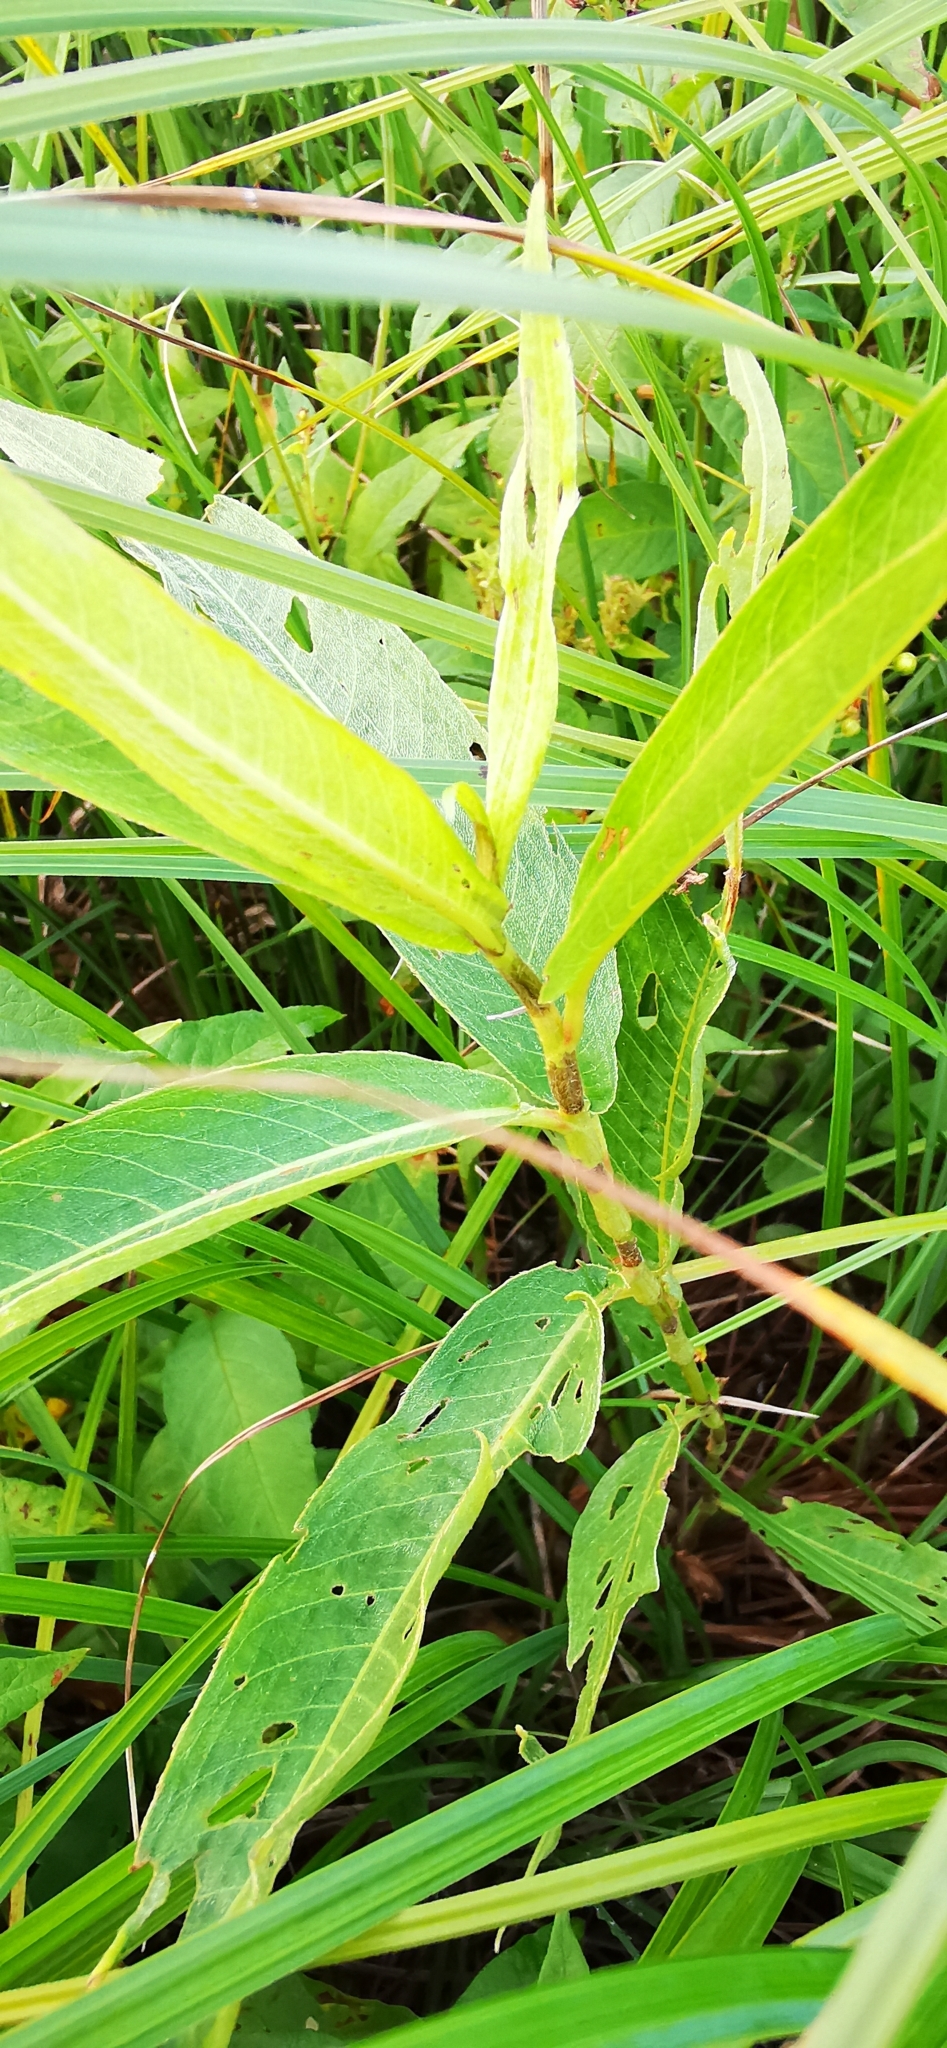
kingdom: Plantae
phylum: Tracheophyta
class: Magnoliopsida
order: Caryophyllales
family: Polygonaceae
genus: Persicaria
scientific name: Persicaria amphibia
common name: Amphibious bistort
